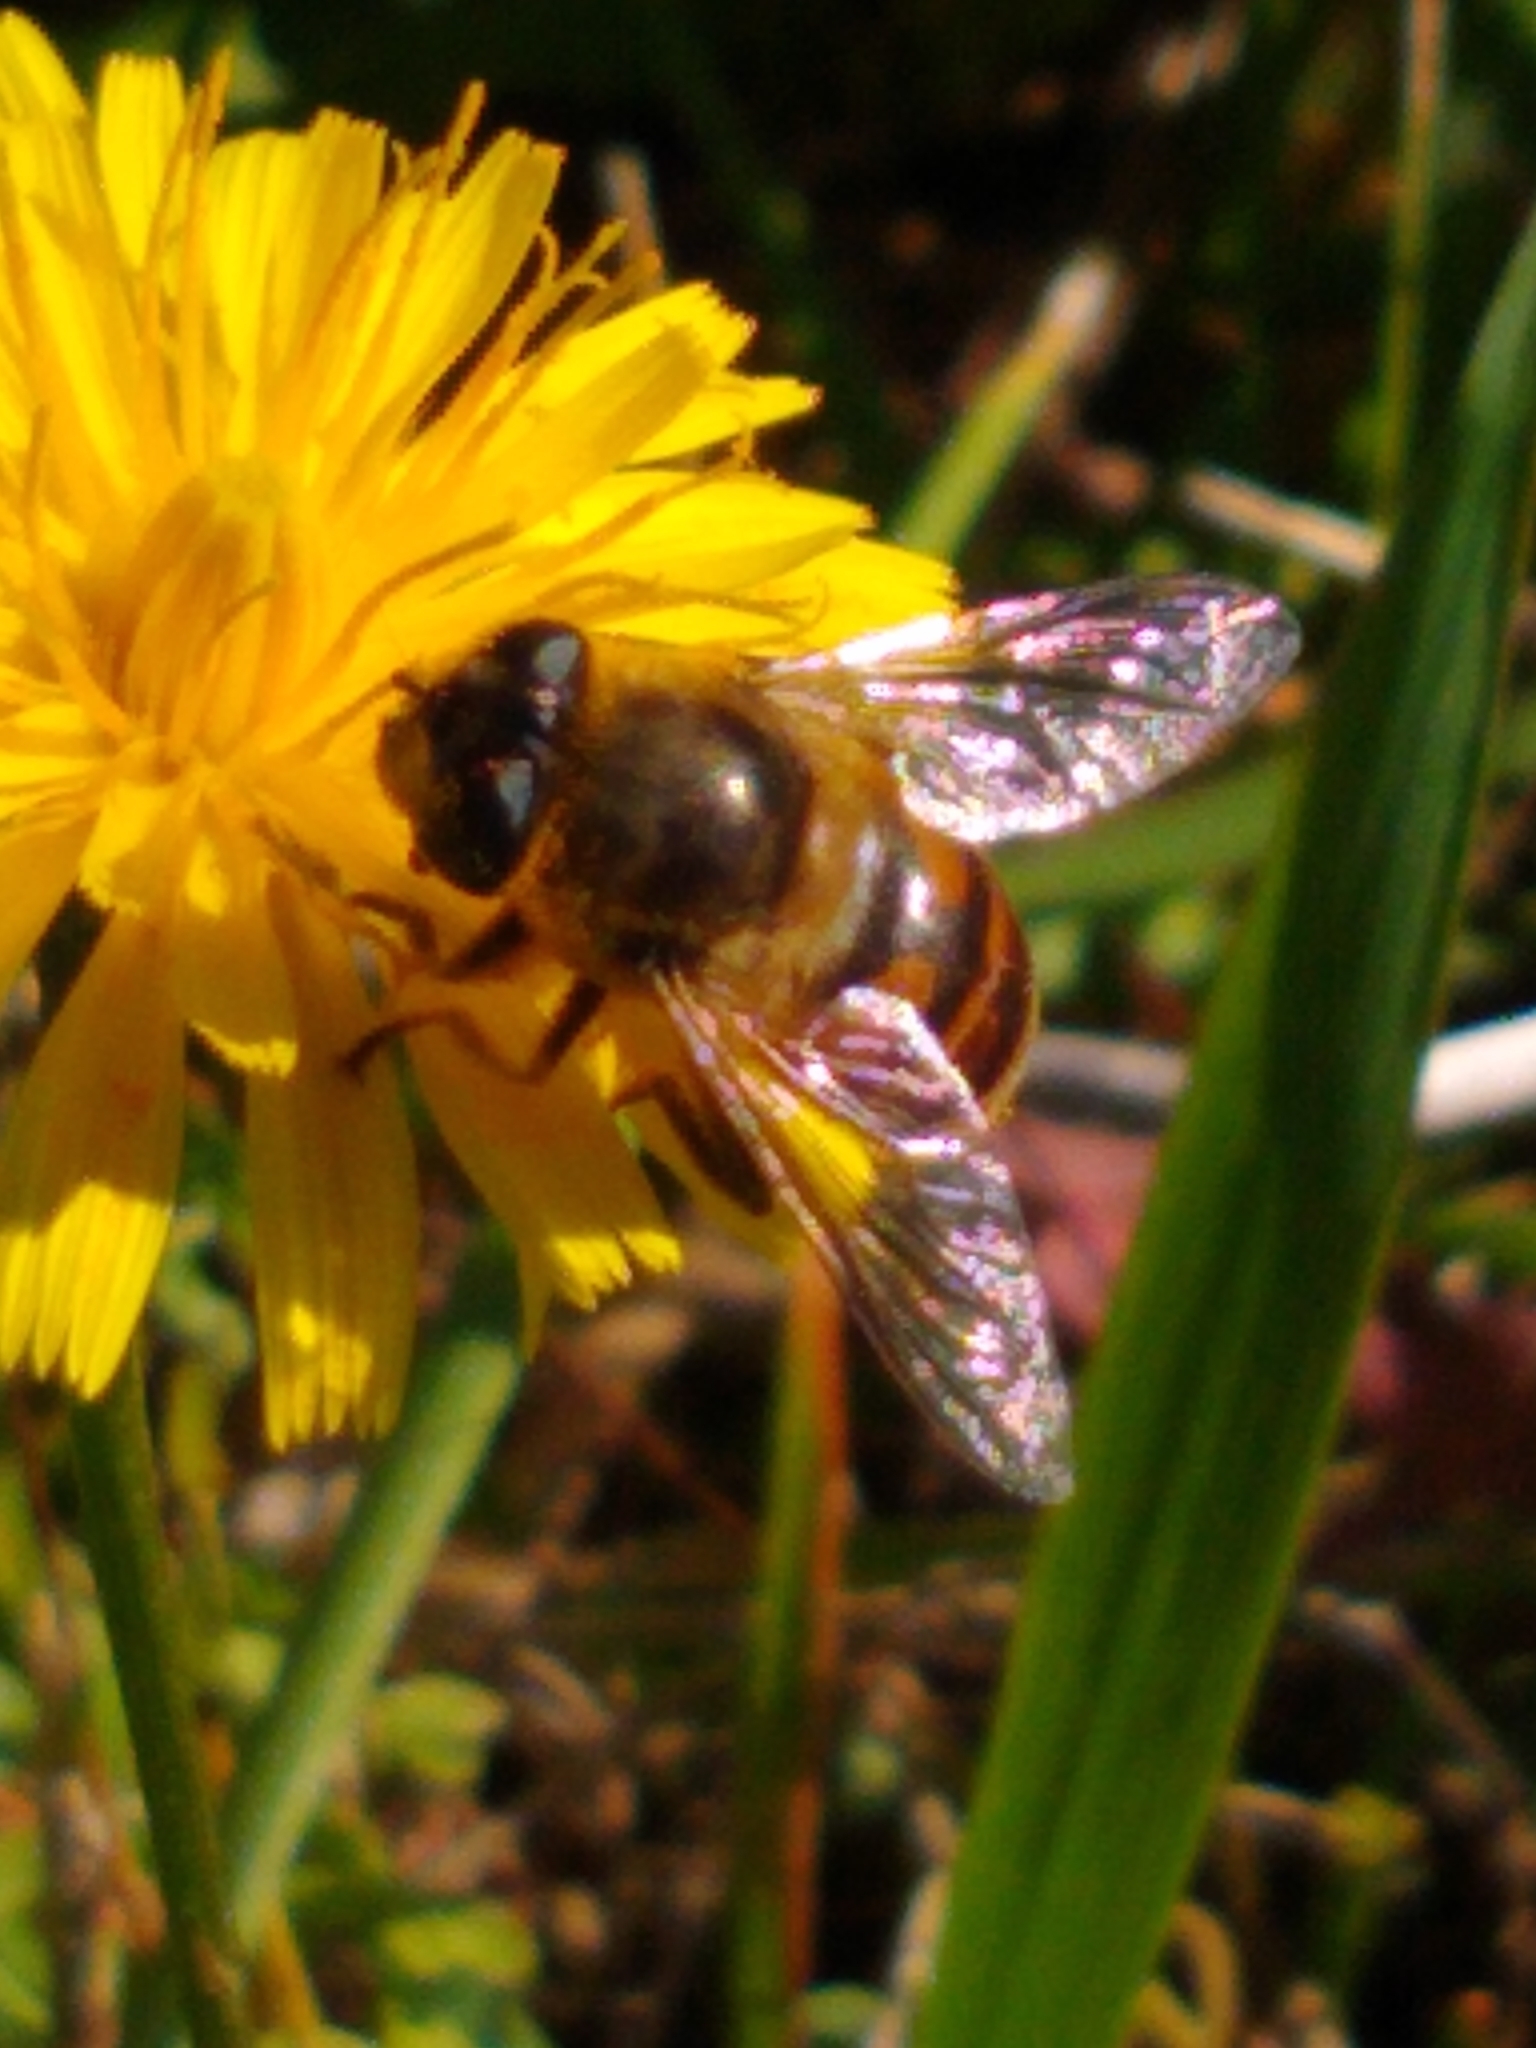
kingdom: Animalia
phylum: Arthropoda
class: Insecta
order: Diptera
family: Syrphidae
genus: Eristalis
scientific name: Eristalis tenax
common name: Drone fly
